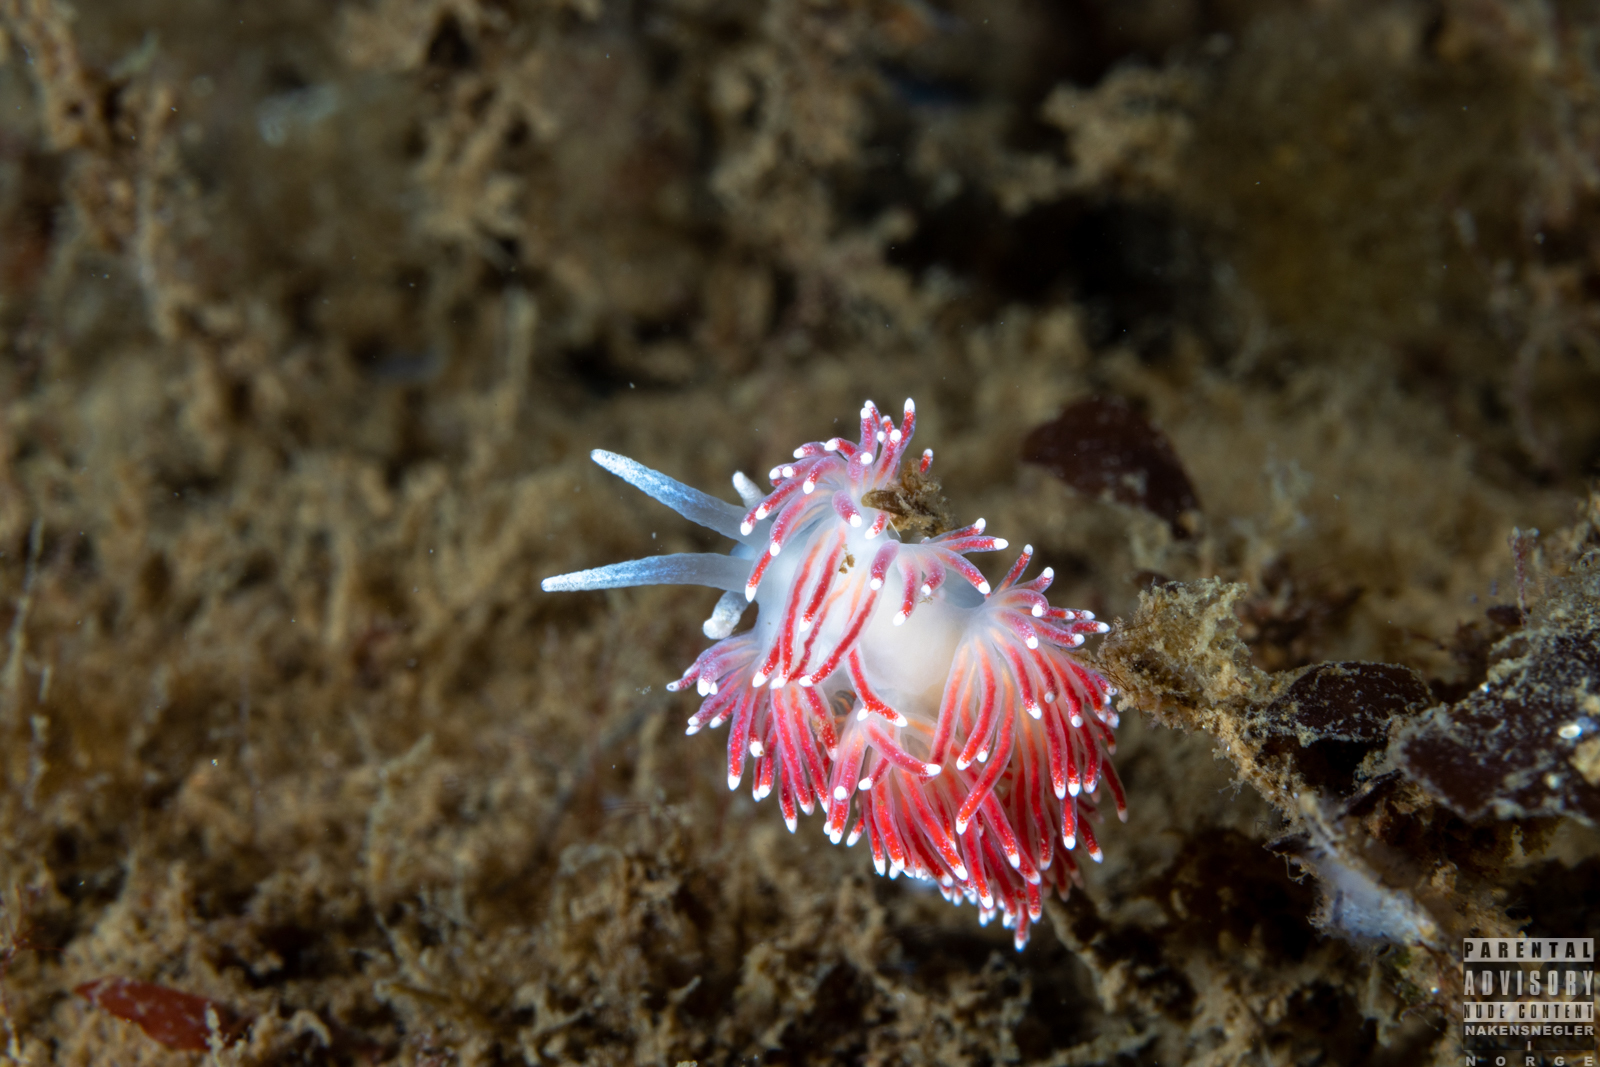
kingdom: Animalia
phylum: Mollusca
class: Gastropoda
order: Nudibranchia
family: Flabellinidae
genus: Carronella
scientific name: Carronella pellucida
